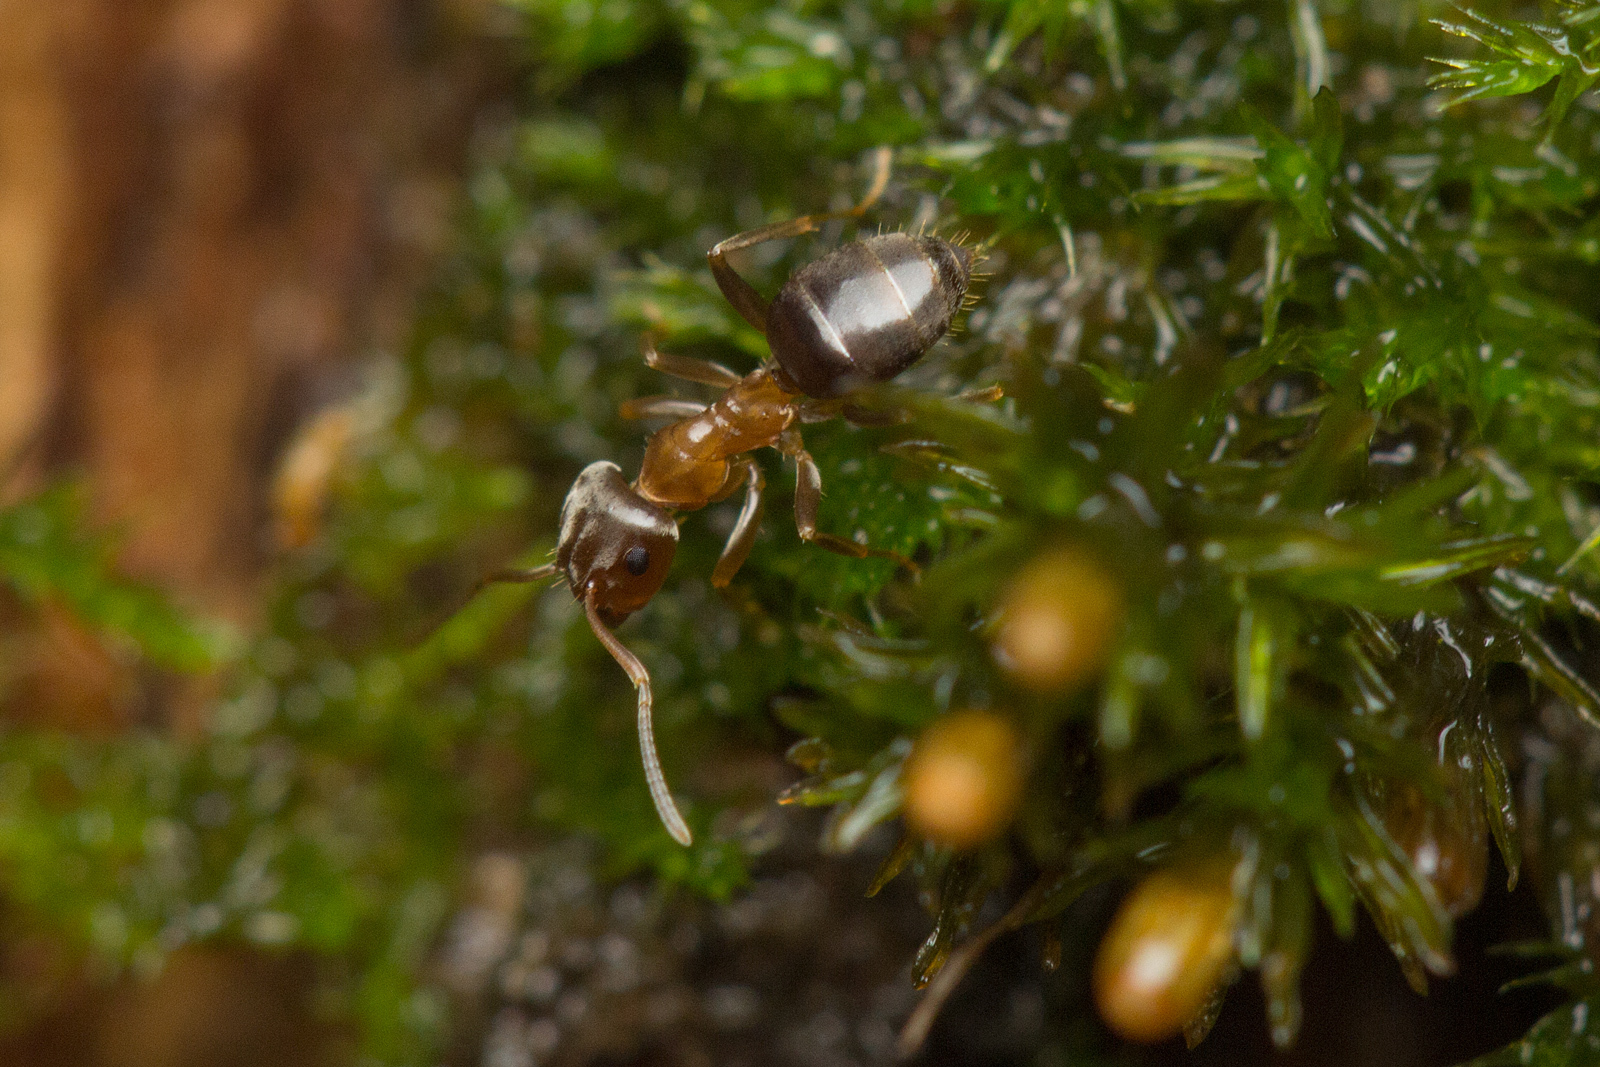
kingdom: Animalia
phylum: Arthropoda
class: Insecta
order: Hymenoptera
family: Formicidae
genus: Lasius
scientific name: Lasius brunneus
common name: Brown ant
